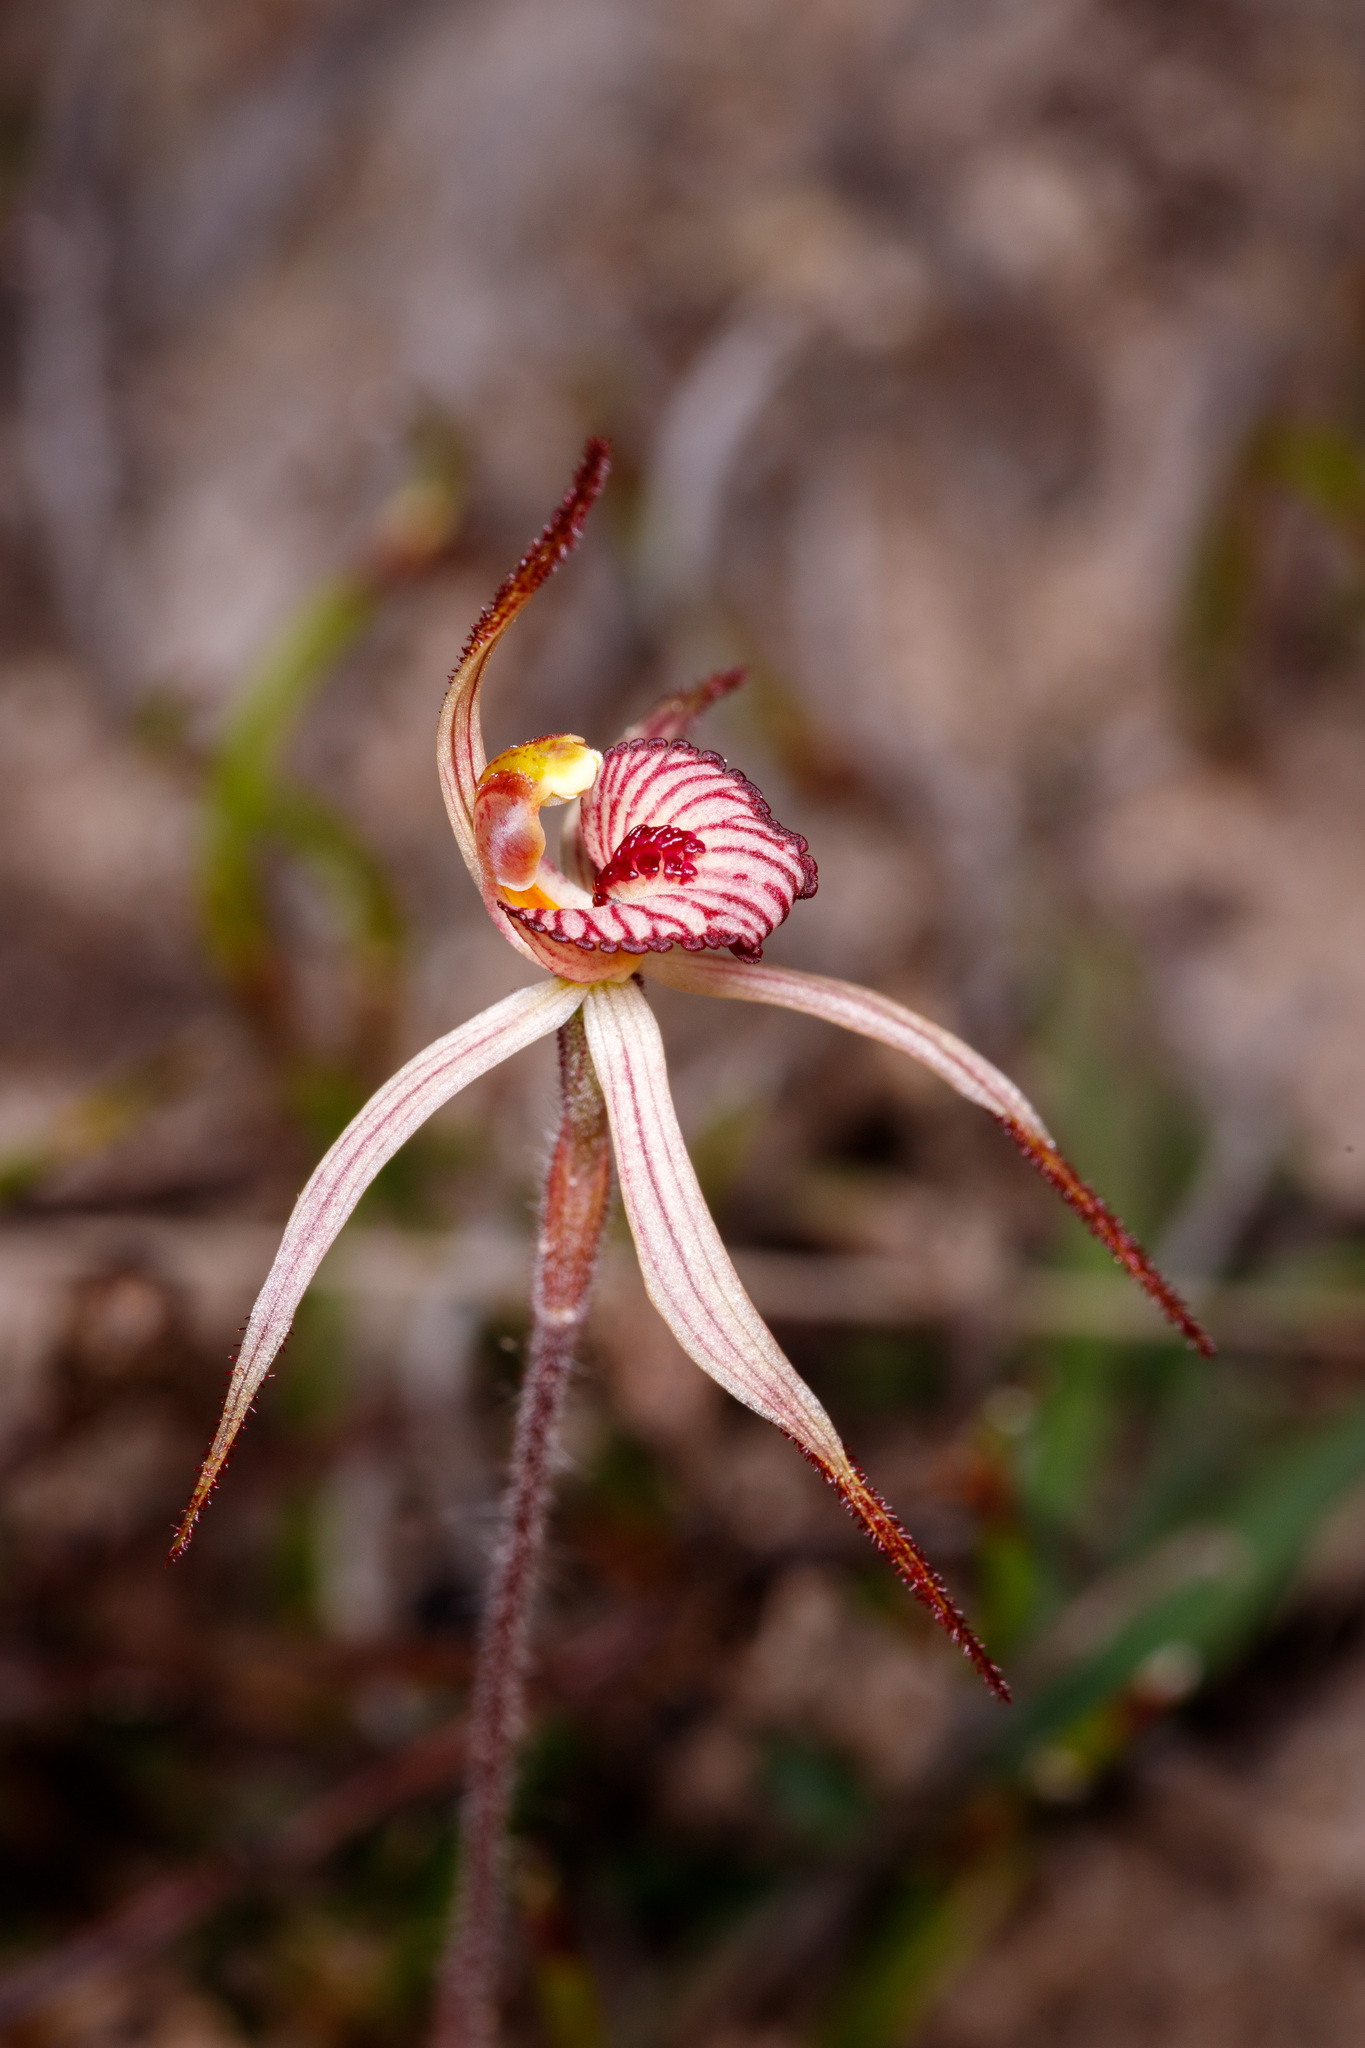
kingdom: Plantae
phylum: Tracheophyta
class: Liliopsida
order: Asparagales
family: Orchidaceae
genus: Caladenia
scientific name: Caladenia ericksoniae
